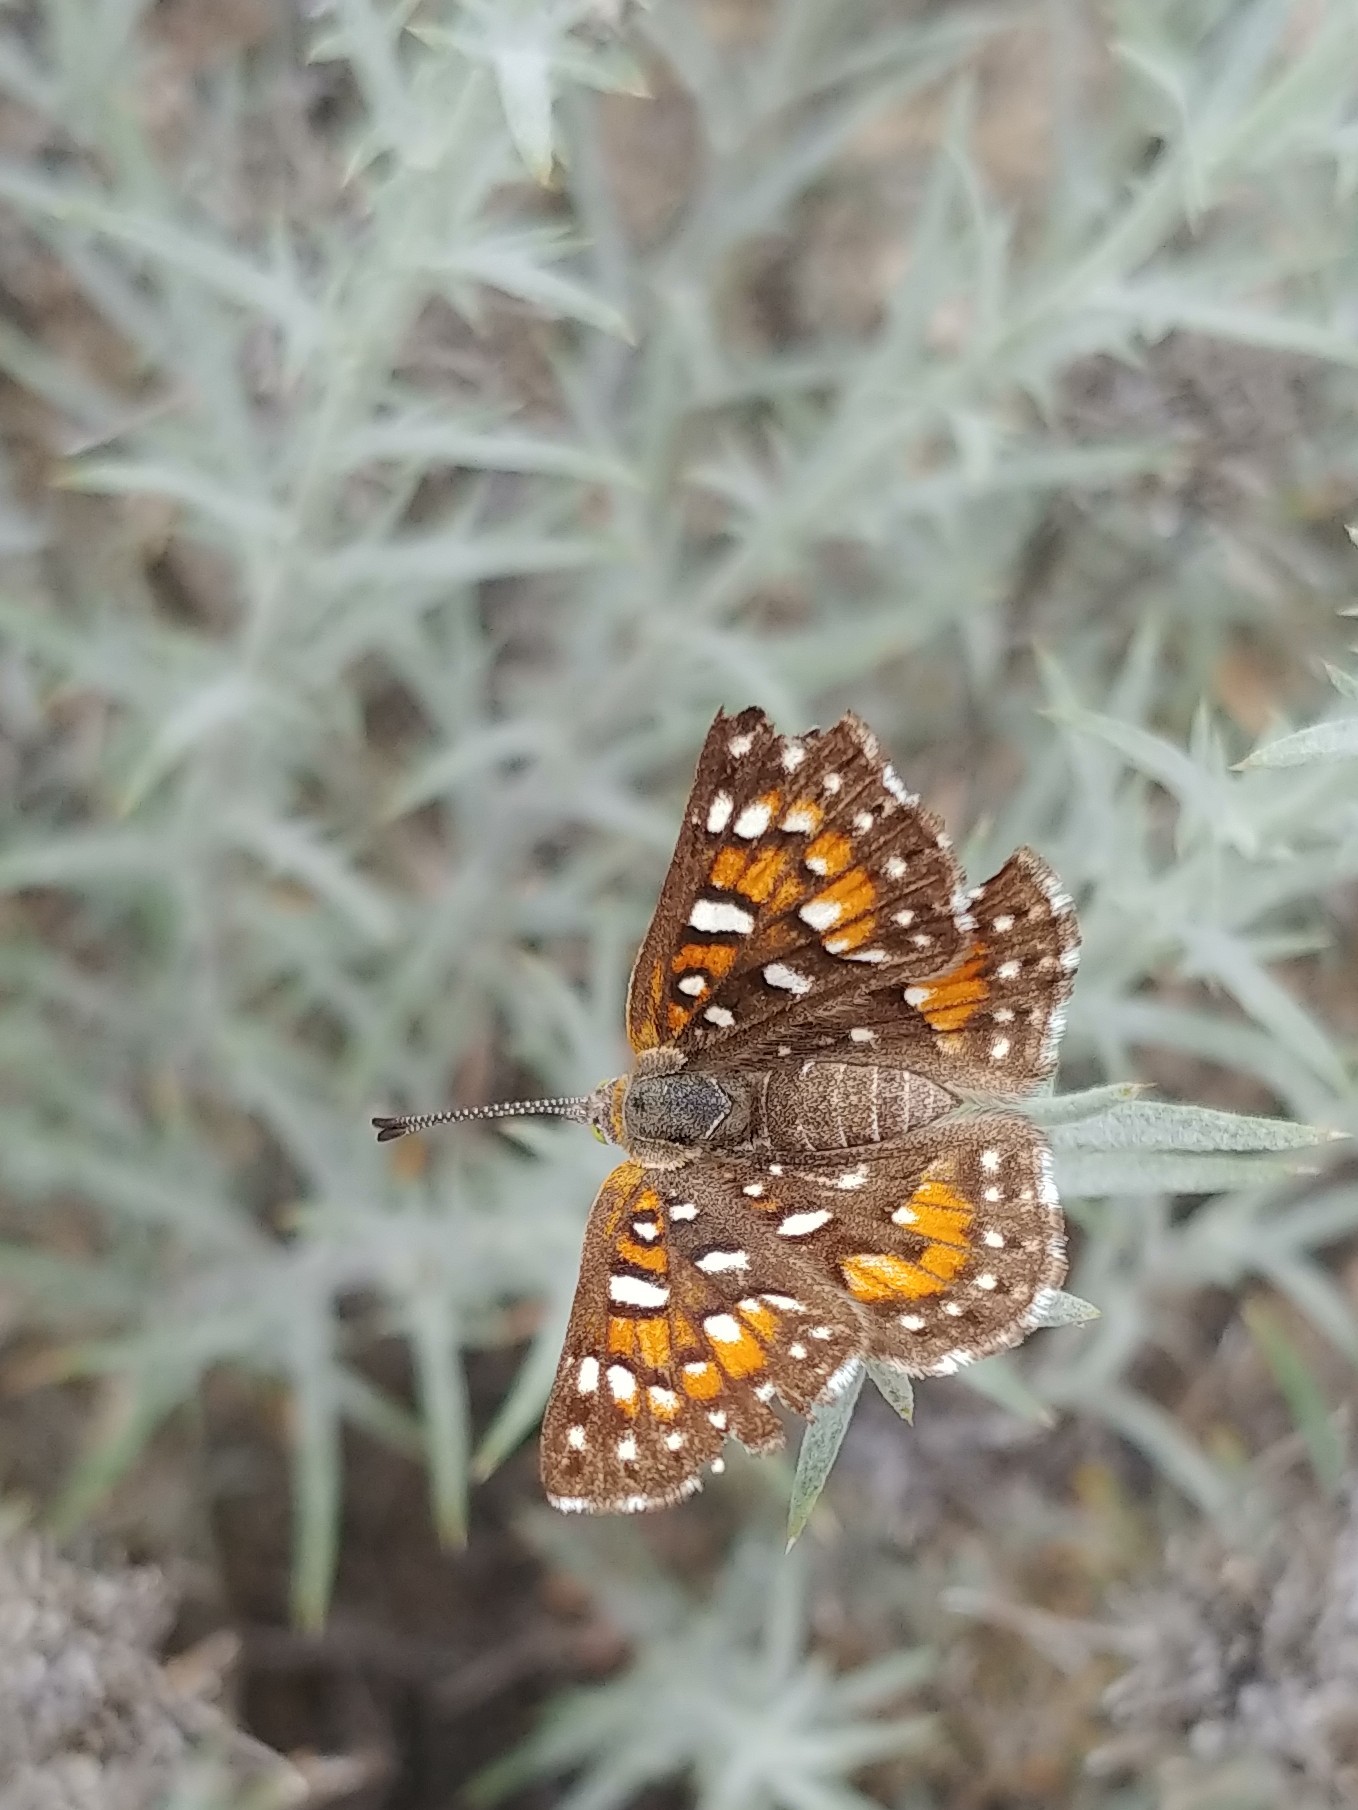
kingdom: Animalia
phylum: Arthropoda
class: Insecta
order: Lepidoptera
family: Riodinidae
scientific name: Riodinidae
